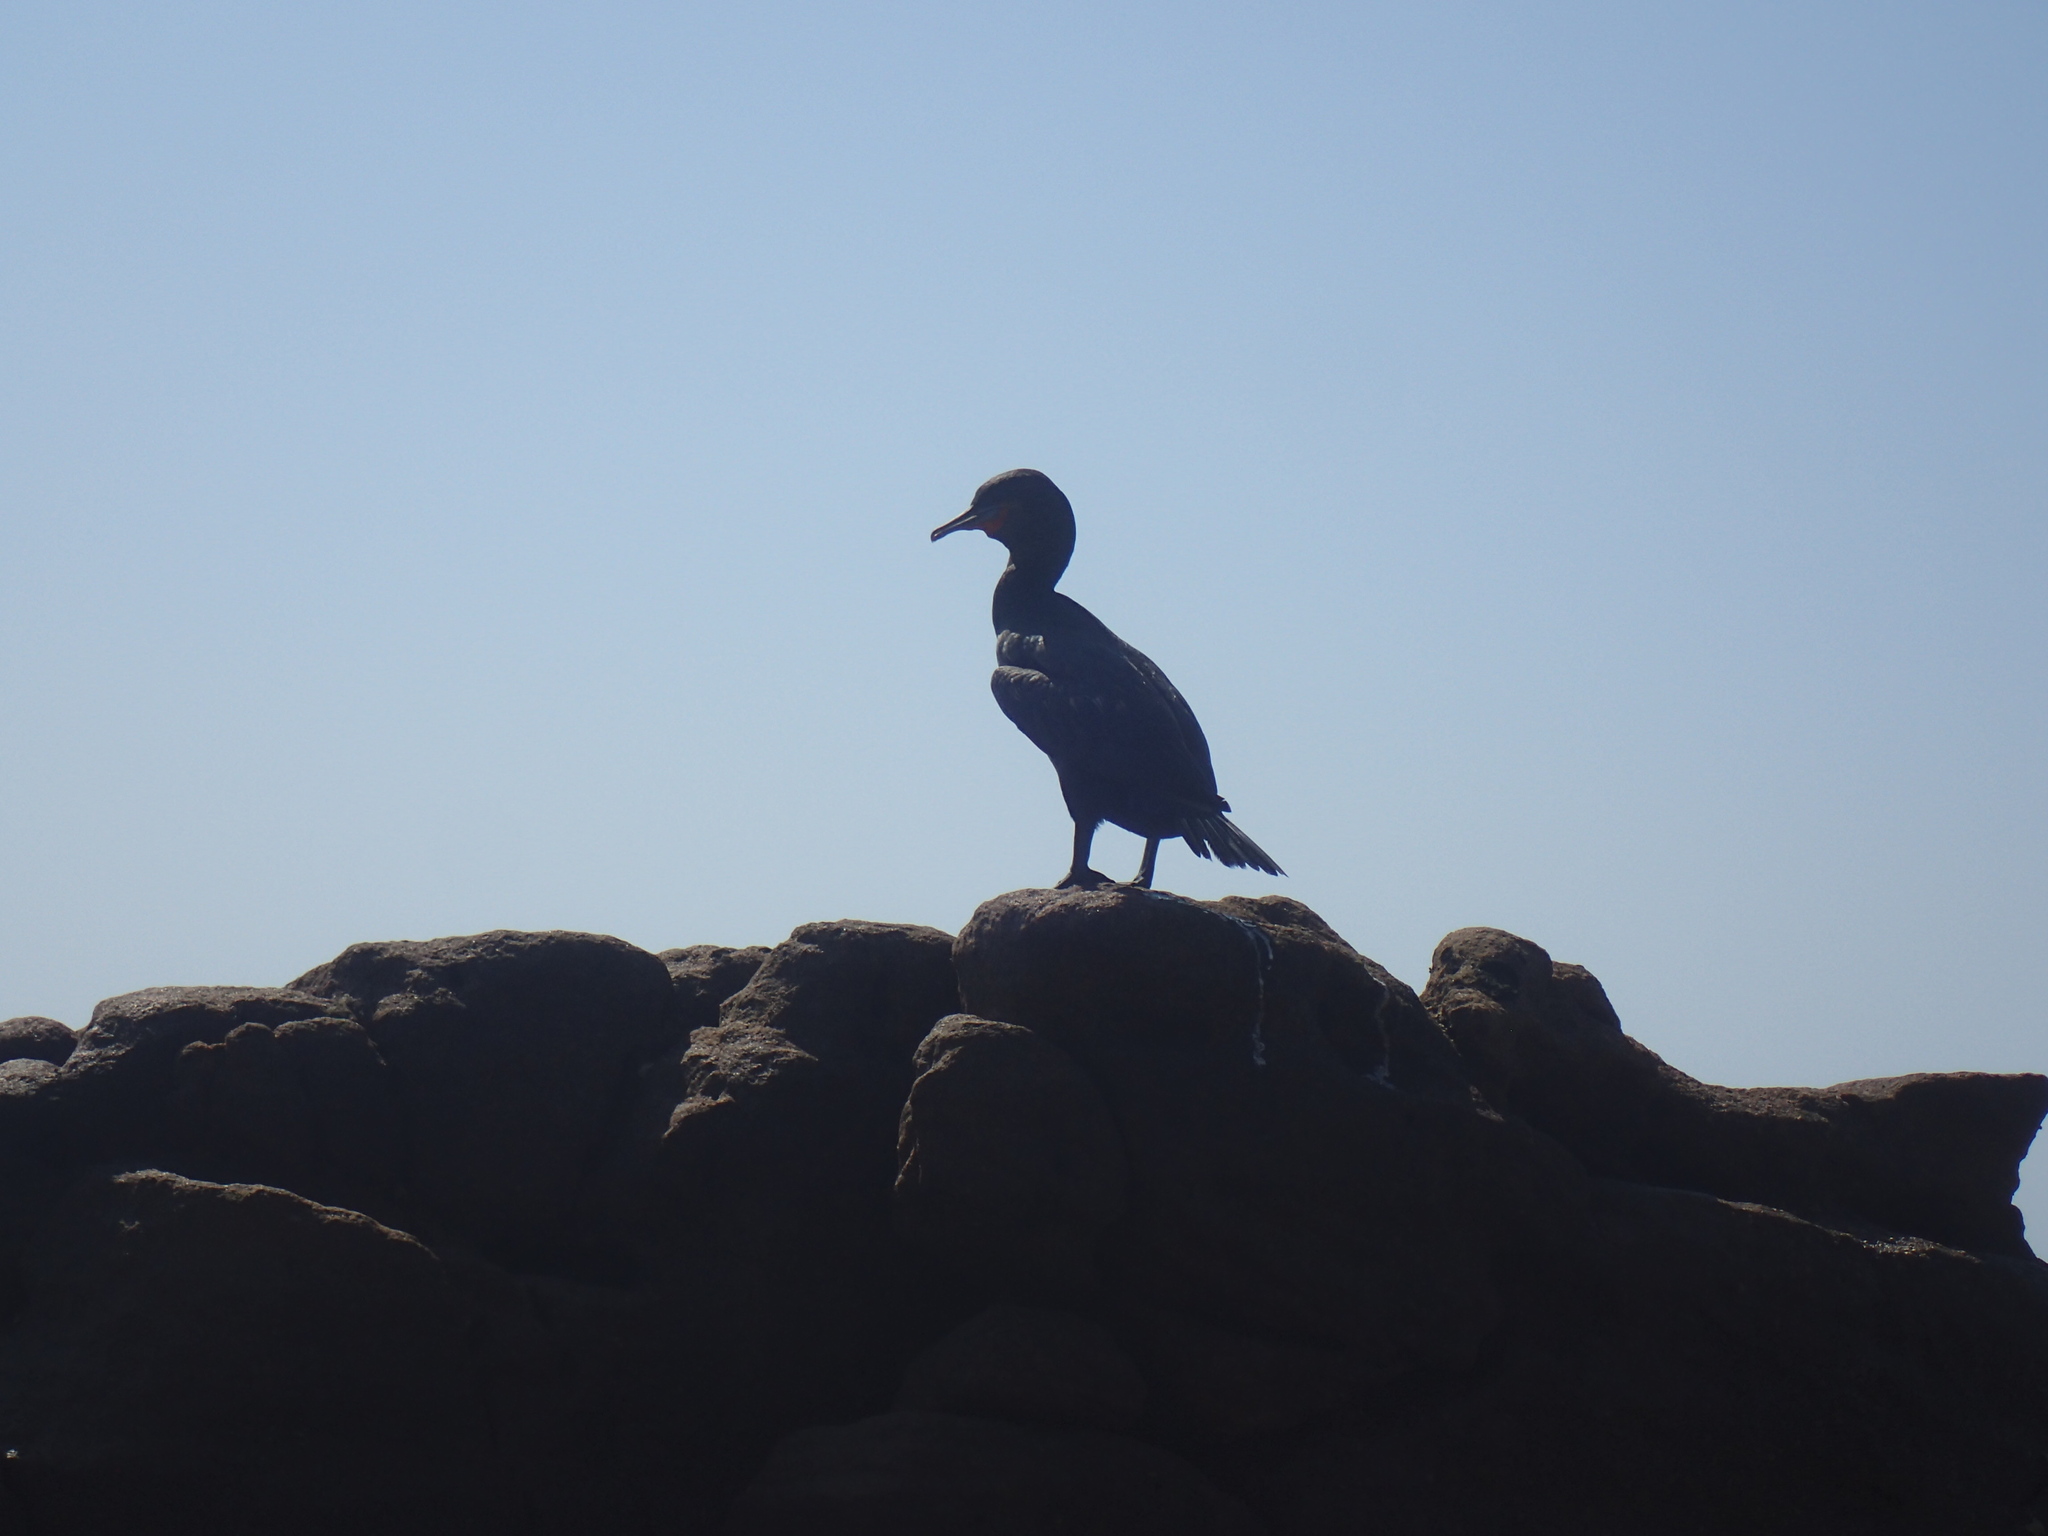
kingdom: Animalia
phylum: Chordata
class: Aves
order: Suliformes
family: Phalacrocoracidae
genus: Phalacrocorax
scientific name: Phalacrocorax capensis
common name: Cape cormorant
